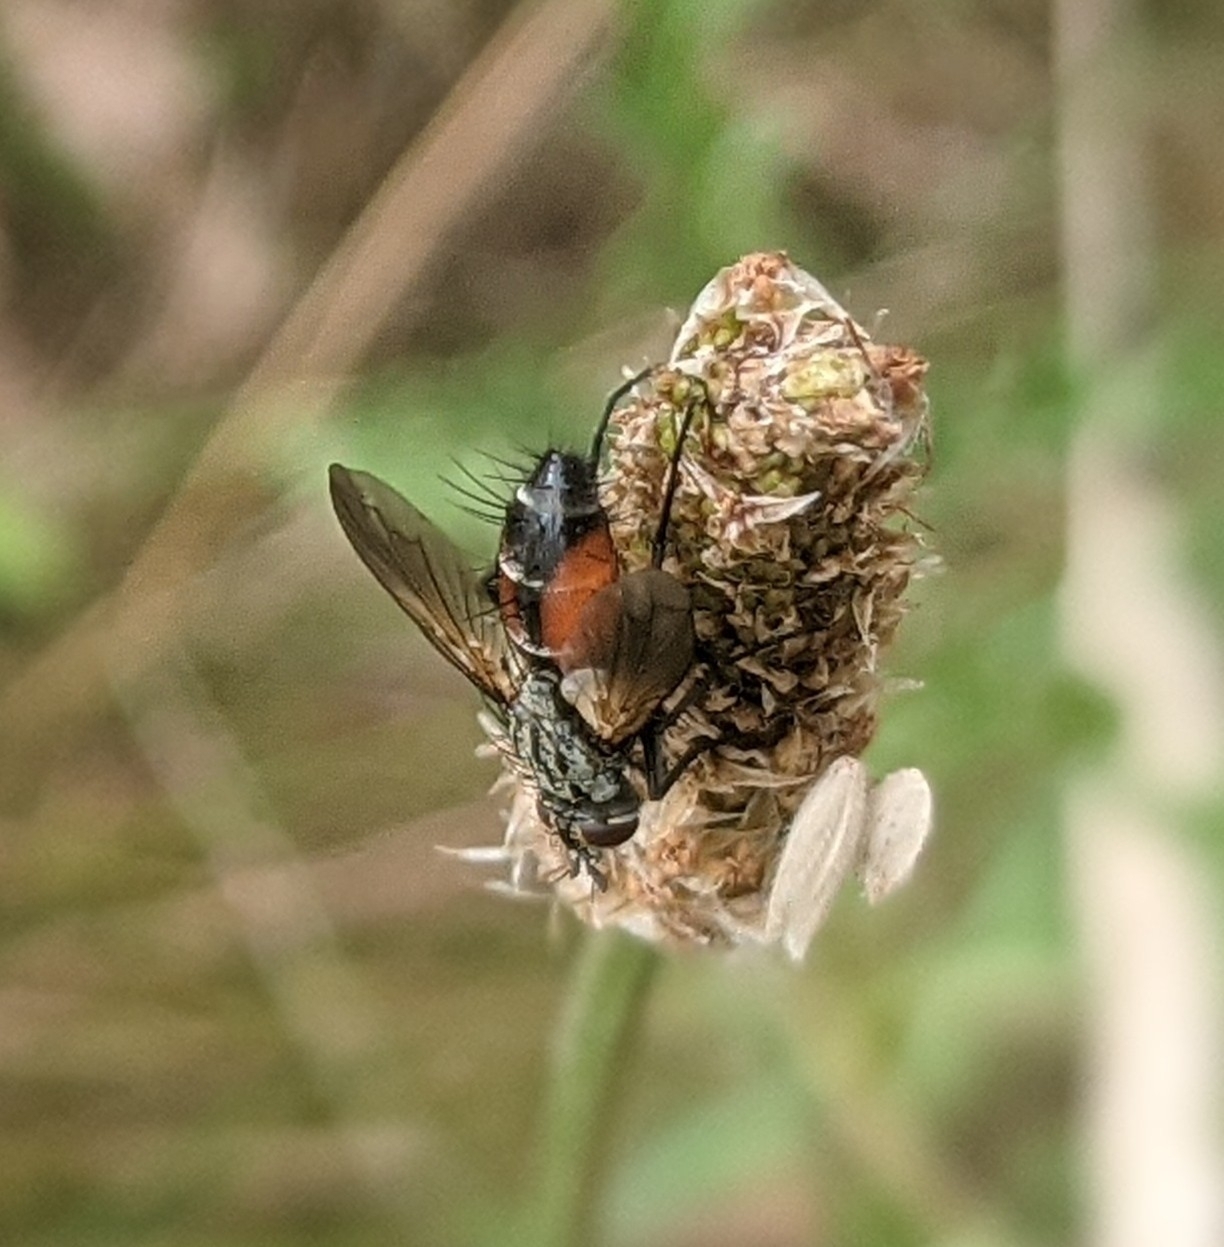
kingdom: Animalia
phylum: Arthropoda
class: Insecta
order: Diptera
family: Tachinidae
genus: Eriothrix
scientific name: Eriothrix rufomaculatus
